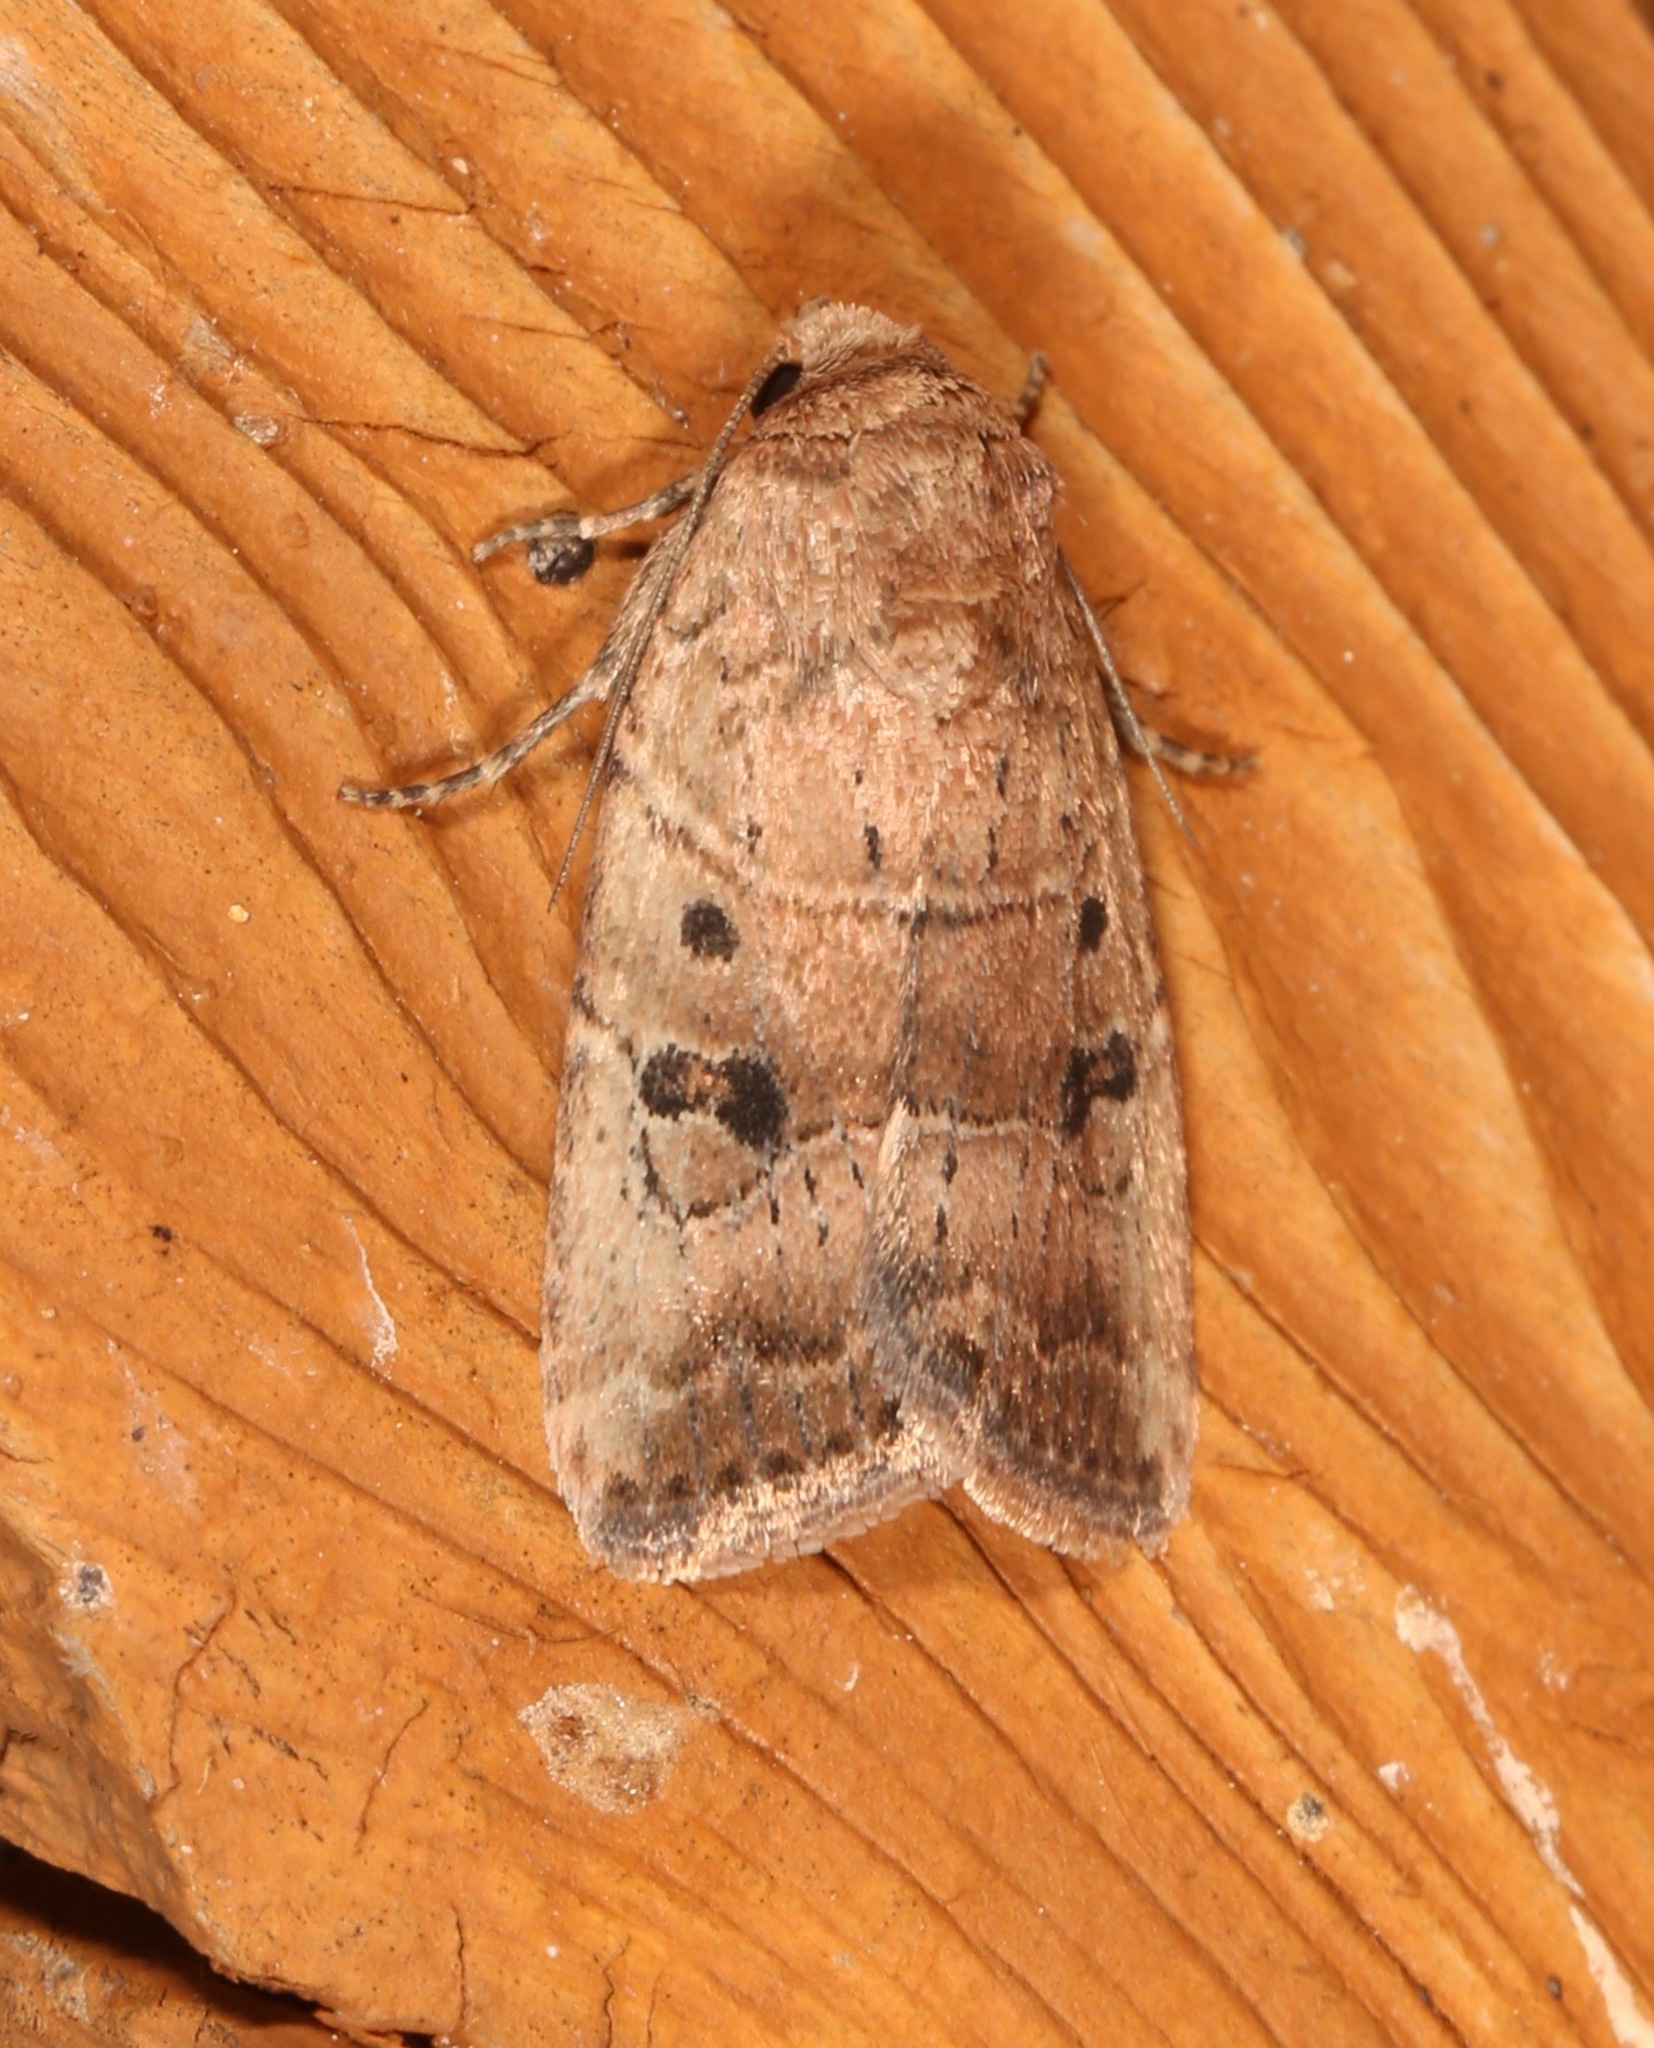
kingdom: Animalia
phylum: Arthropoda
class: Insecta
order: Lepidoptera
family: Noctuidae
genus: Elaphria
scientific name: Elaphria fuscimacula
